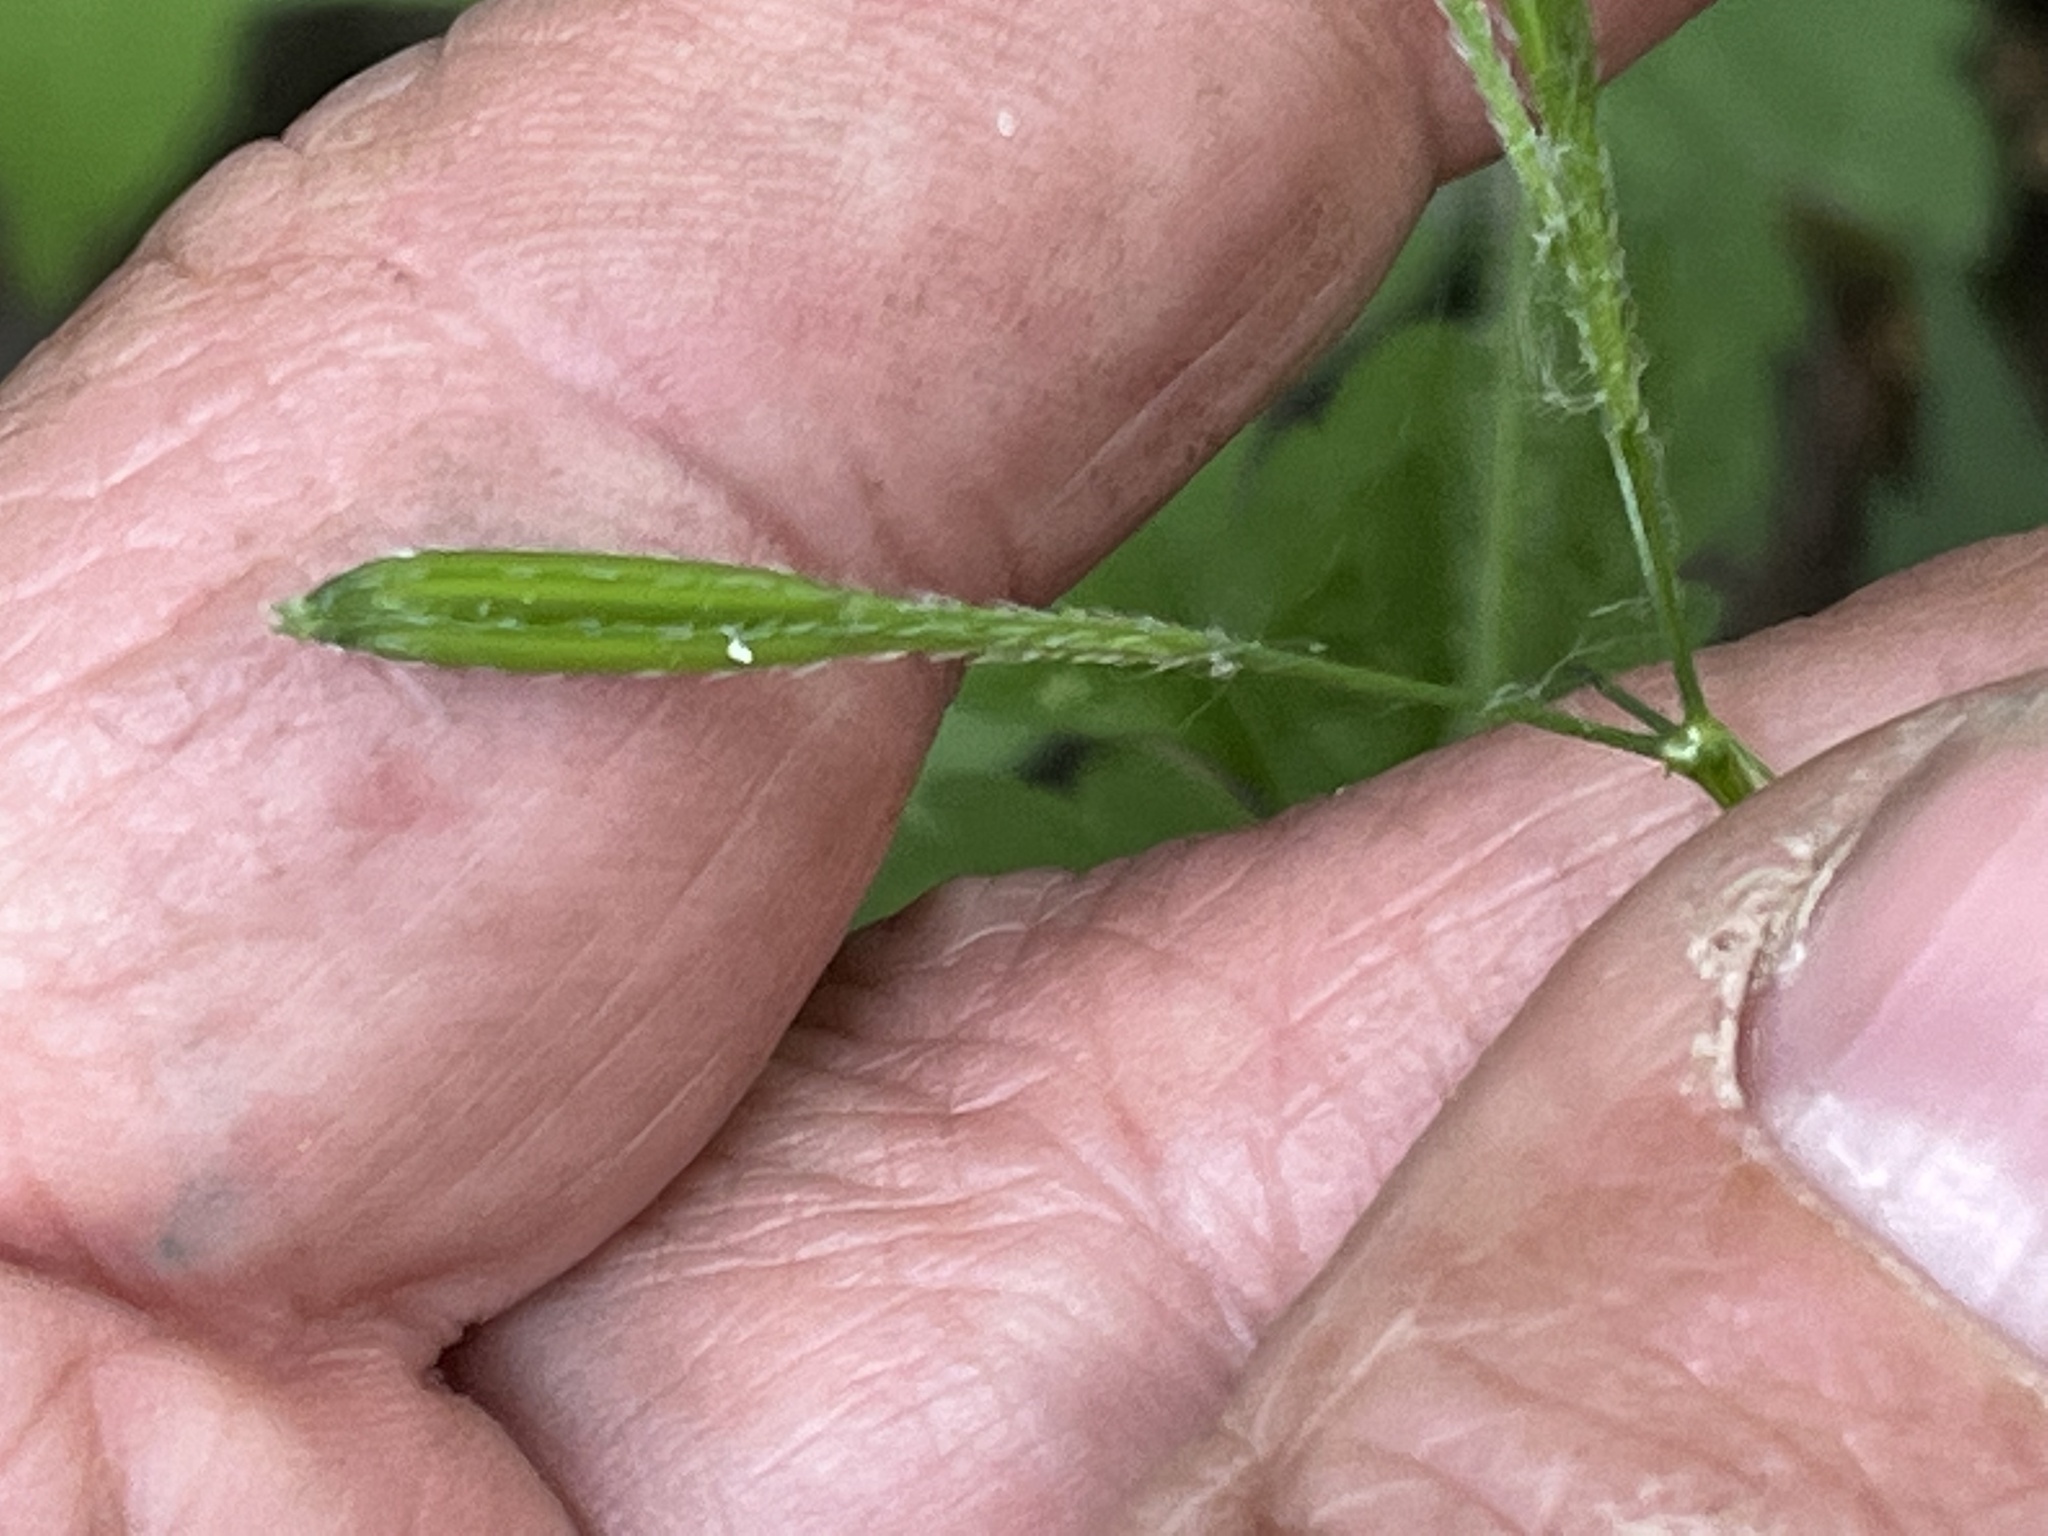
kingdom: Plantae
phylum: Tracheophyta
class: Magnoliopsida
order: Apiales
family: Apiaceae
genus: Osmorhiza
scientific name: Osmorhiza claytonii
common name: Hairy sweet cicely
